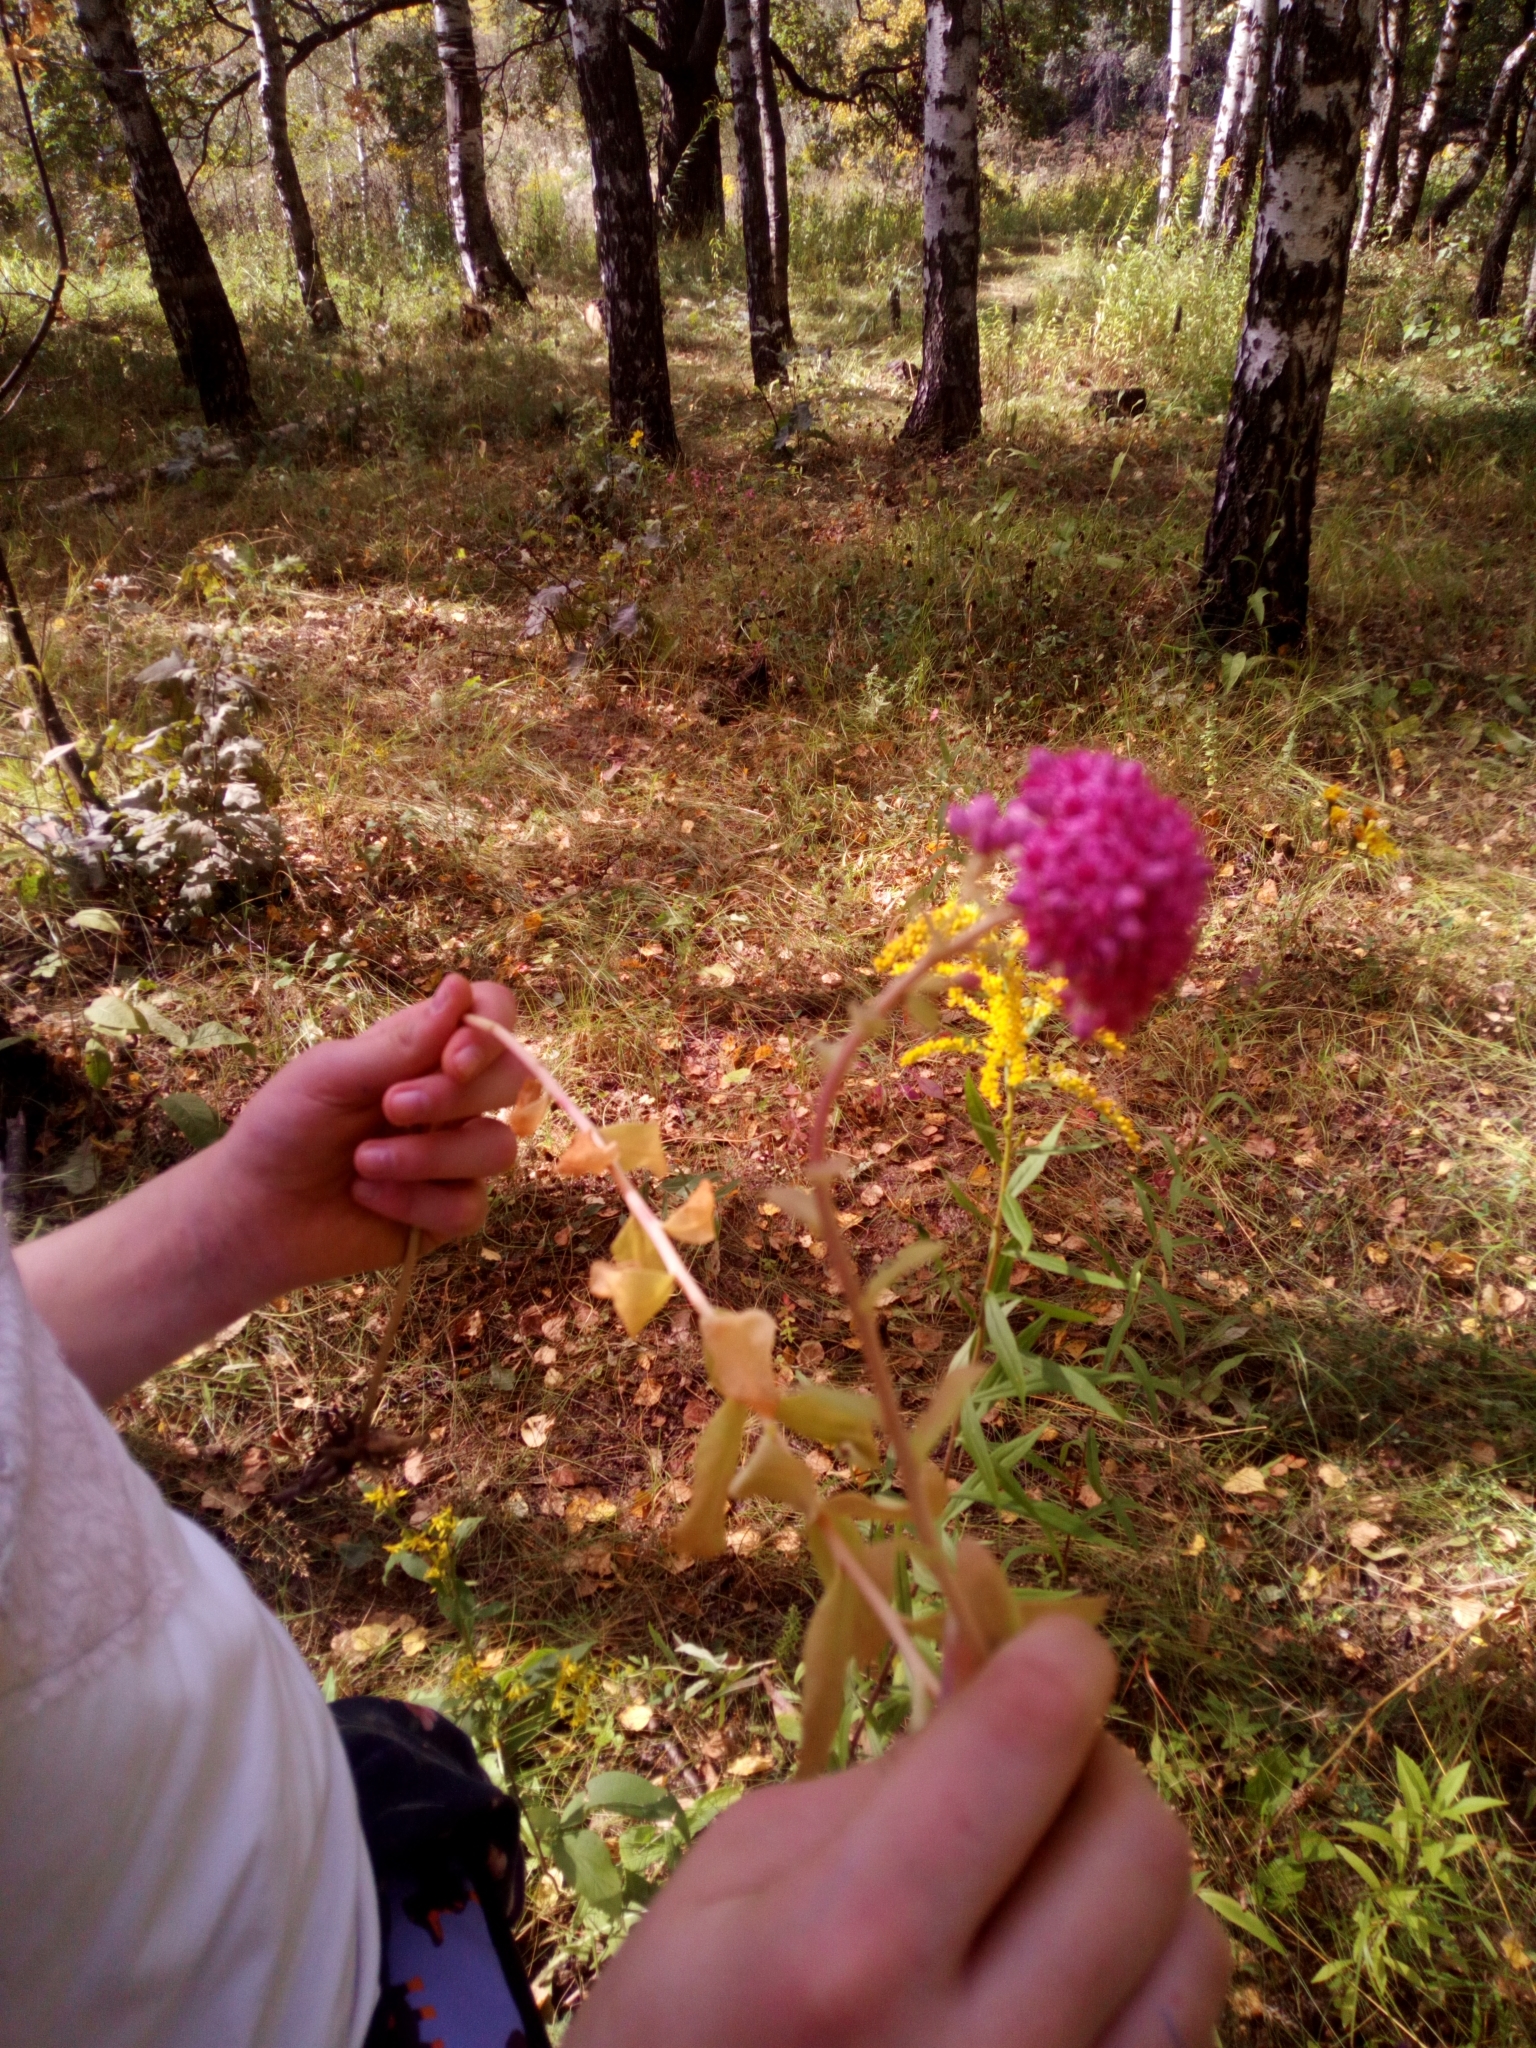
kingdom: Plantae
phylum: Tracheophyta
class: Magnoliopsida
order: Saxifragales
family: Crassulaceae
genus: Hylotelephium
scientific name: Hylotelephium telephium
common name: Live-forever
